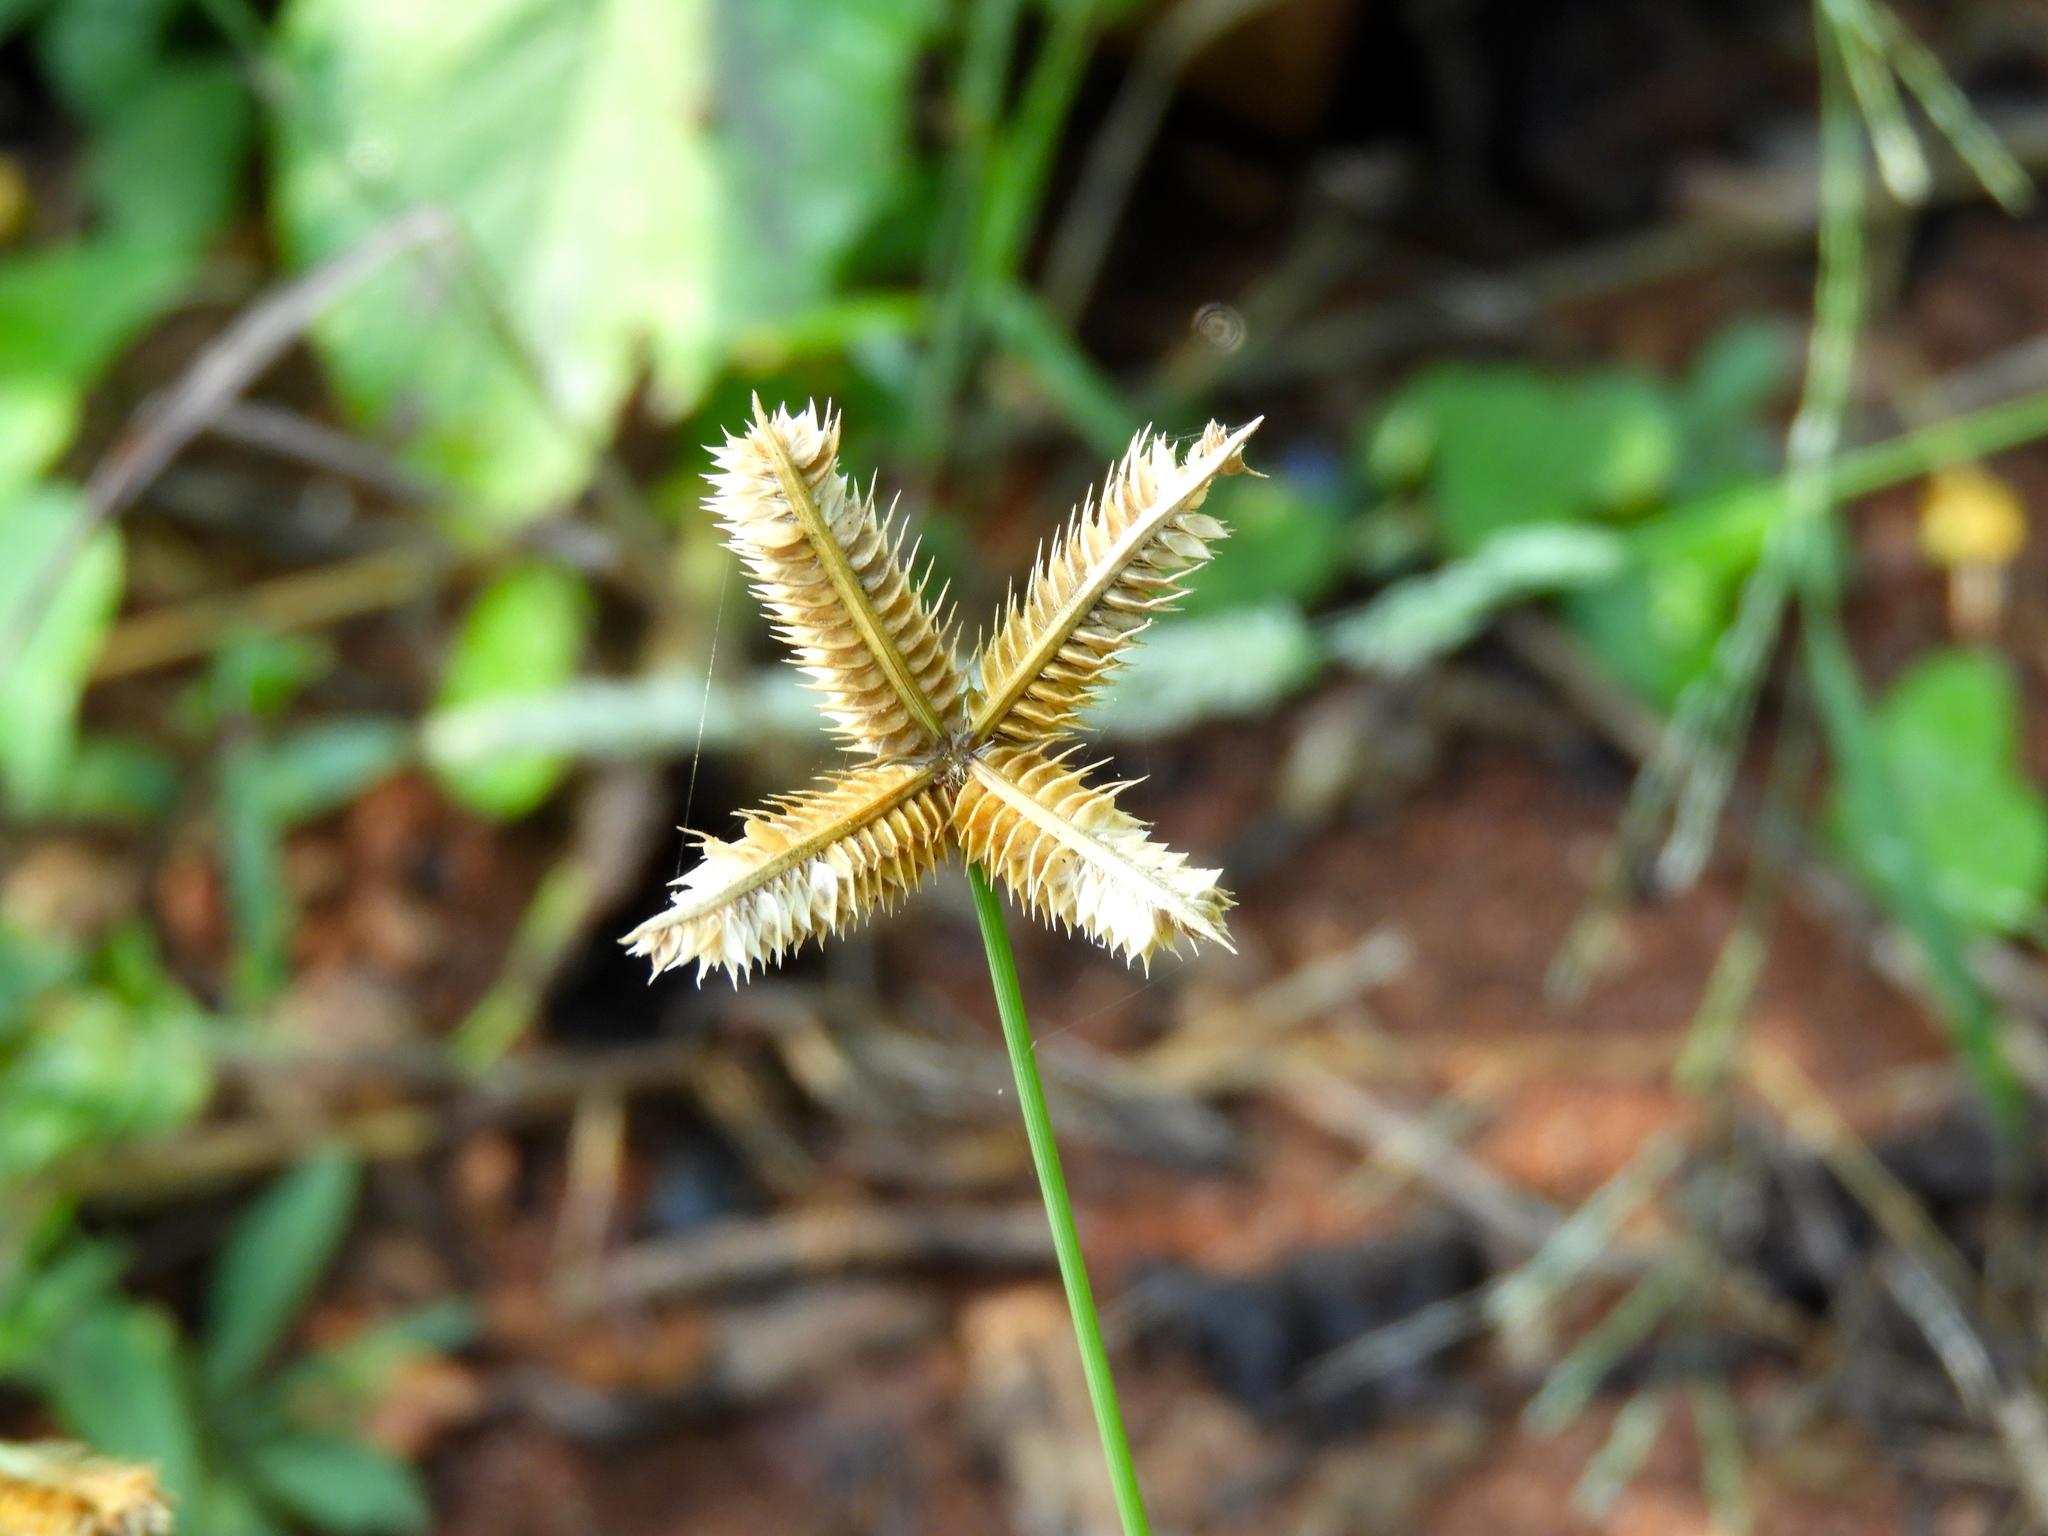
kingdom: Plantae
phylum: Tracheophyta
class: Liliopsida
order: Poales
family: Poaceae
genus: Dactyloctenium
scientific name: Dactyloctenium aegyptium
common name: Egyptian grass
